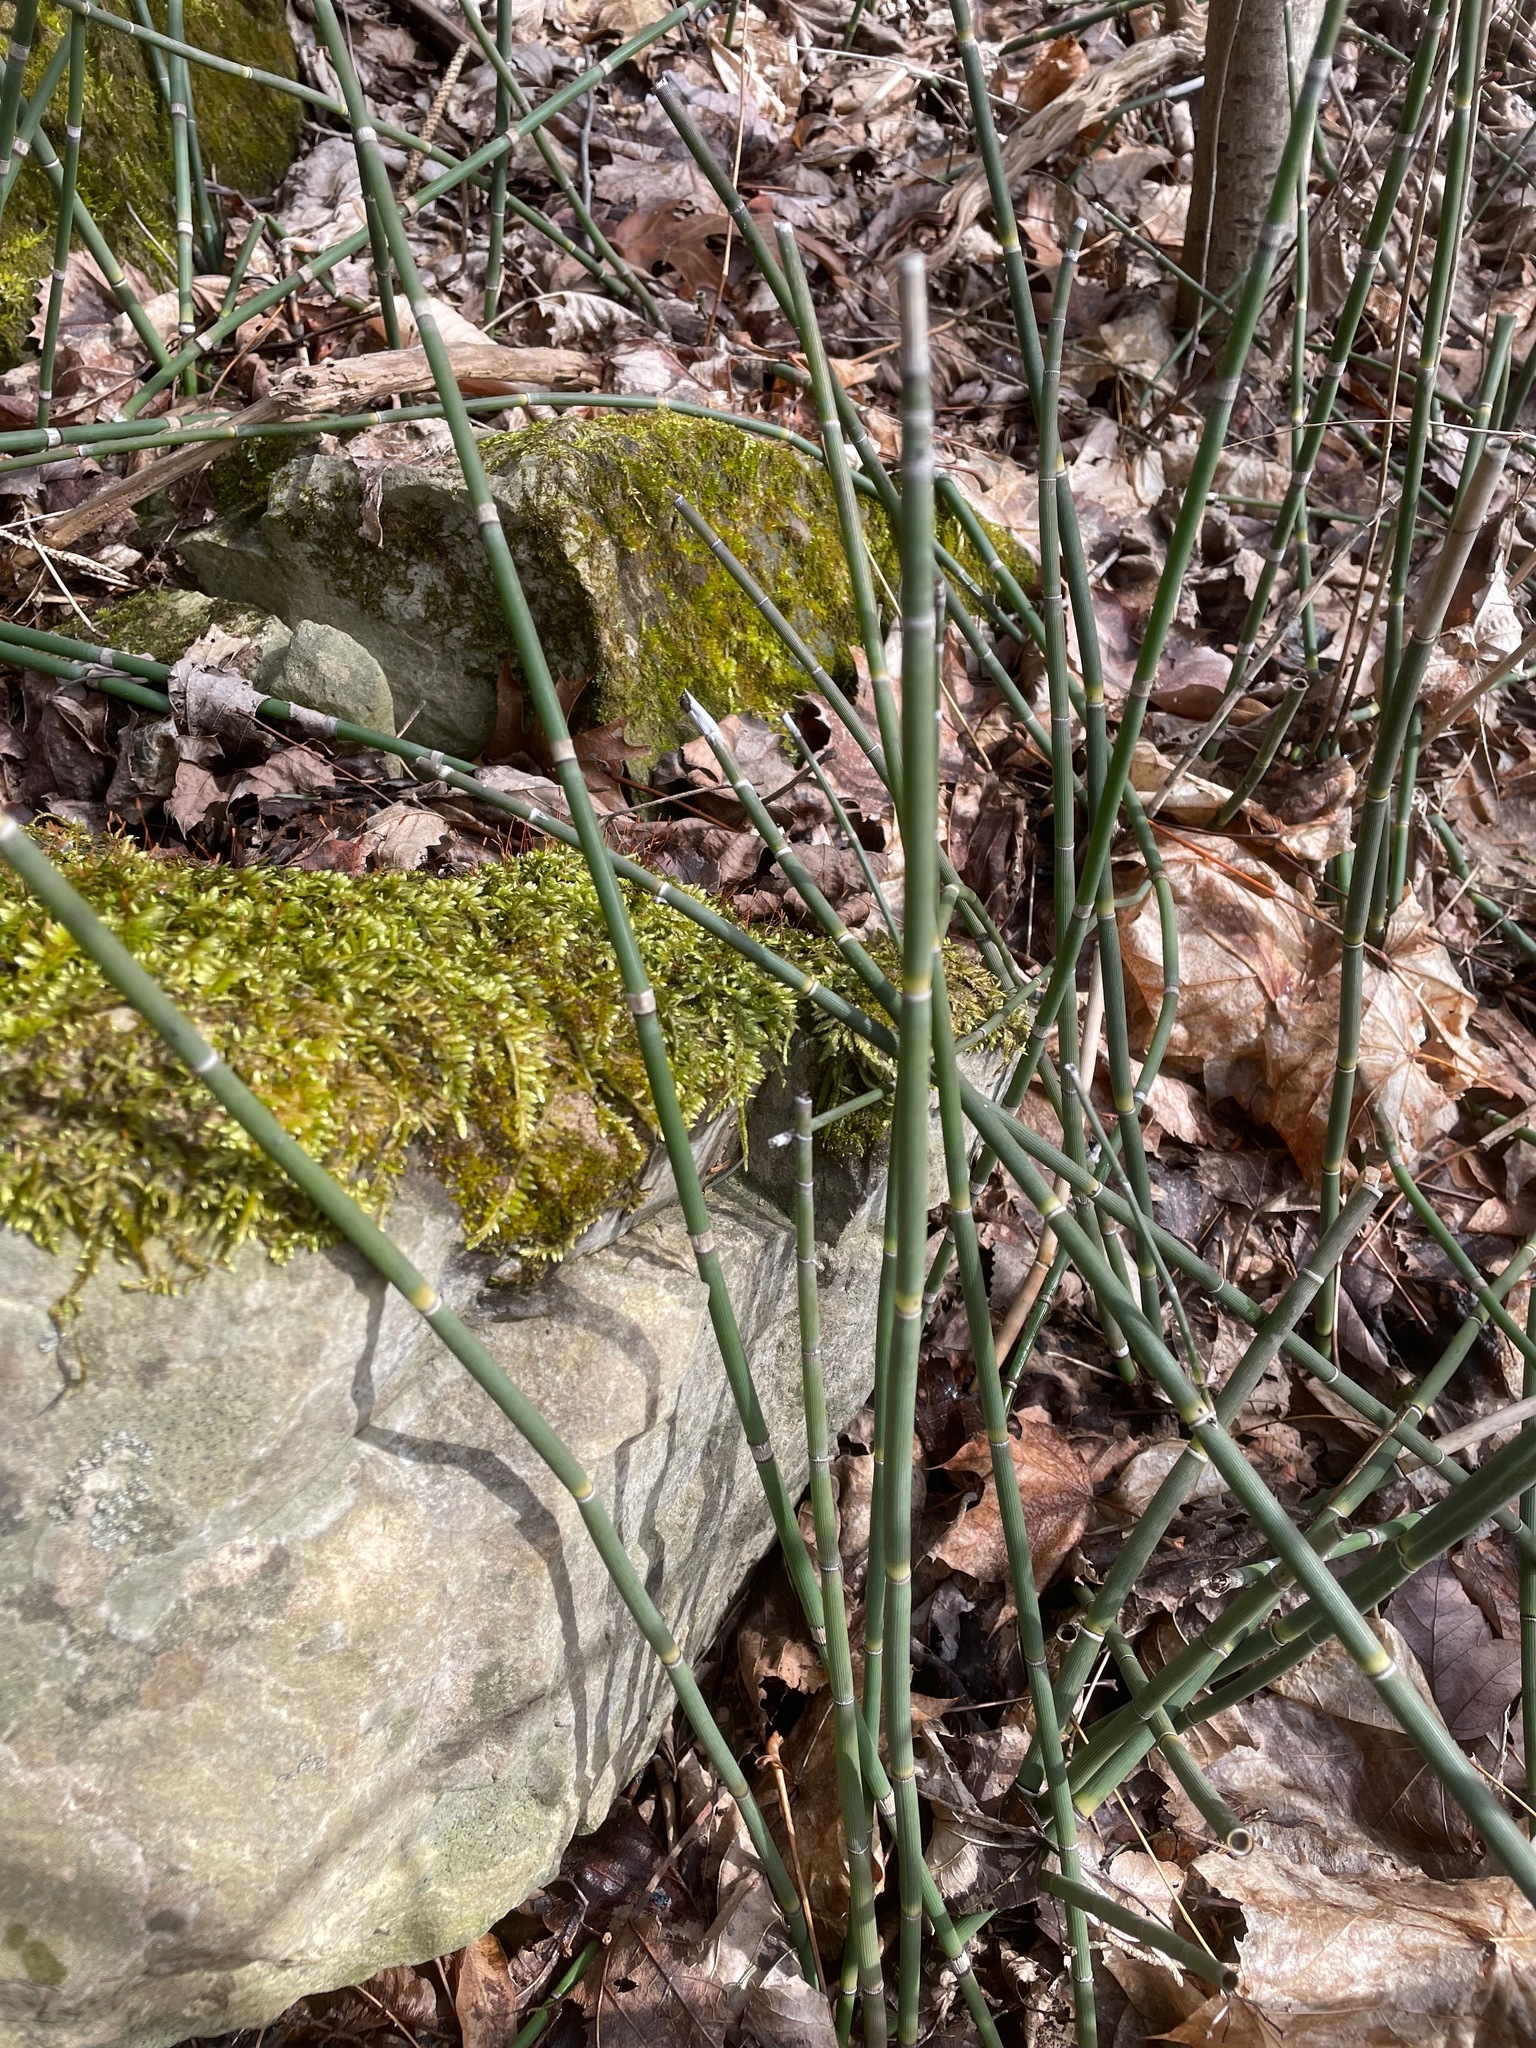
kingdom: Plantae
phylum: Tracheophyta
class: Polypodiopsida
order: Equisetales
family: Equisetaceae
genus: Equisetum
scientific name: Equisetum hyemale
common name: Rough horsetail
